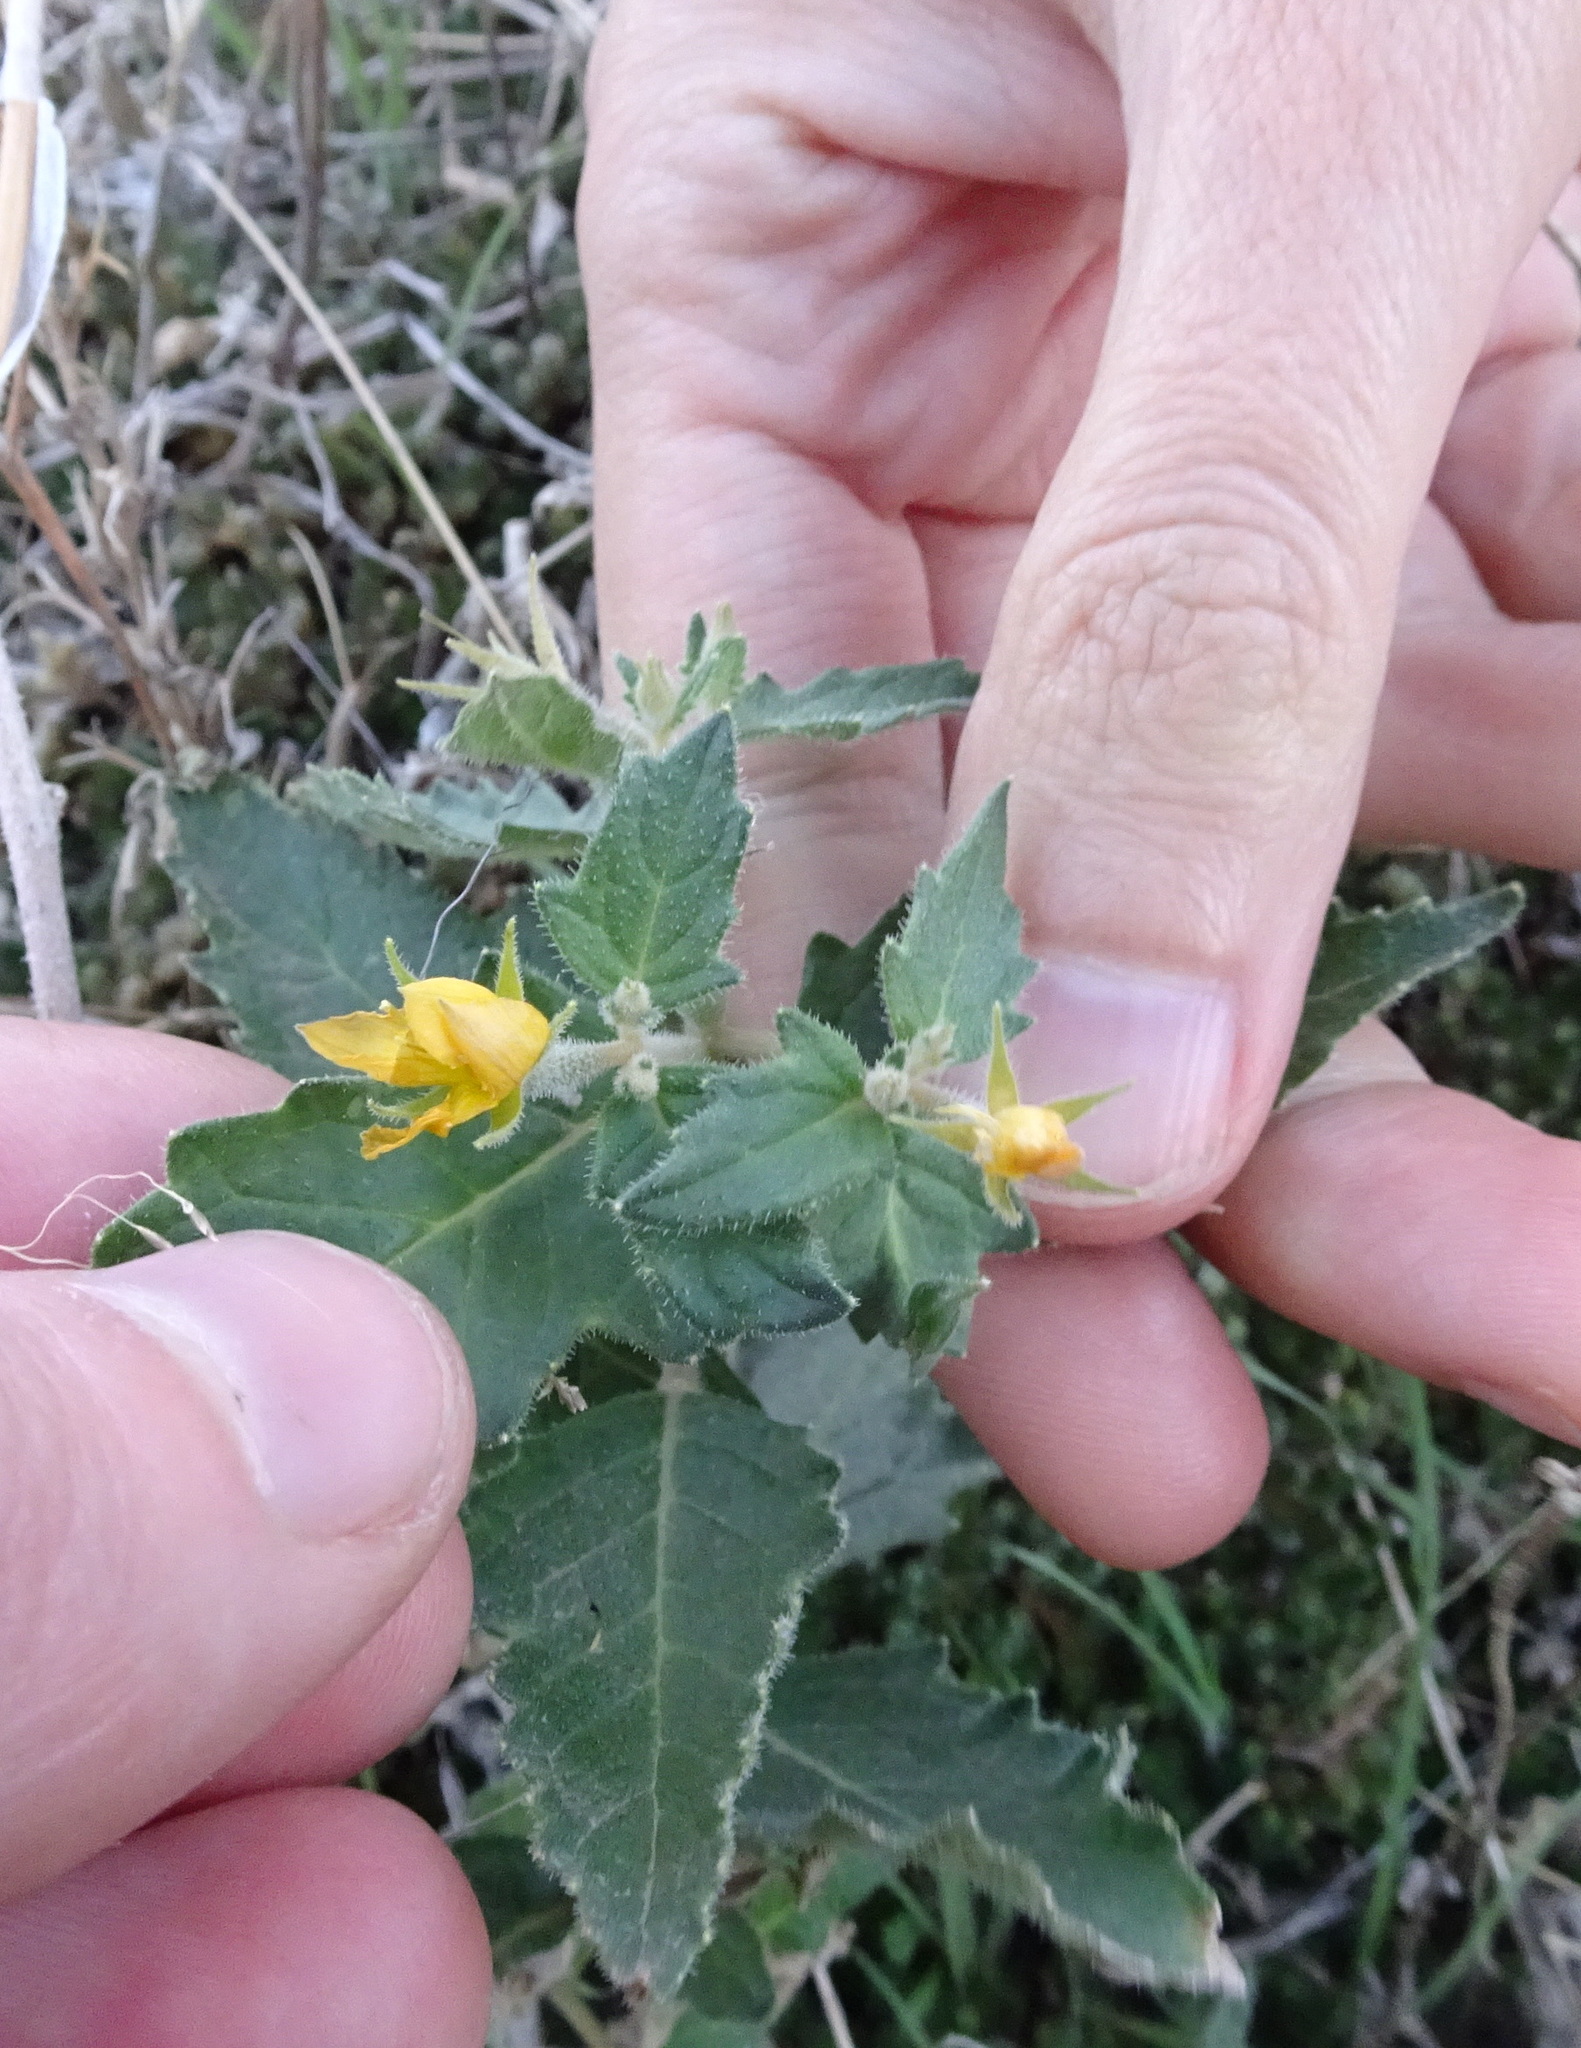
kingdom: Plantae
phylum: Tracheophyta
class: Magnoliopsida
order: Cornales
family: Loasaceae
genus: Mentzelia
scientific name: Mentzelia oligosperma
